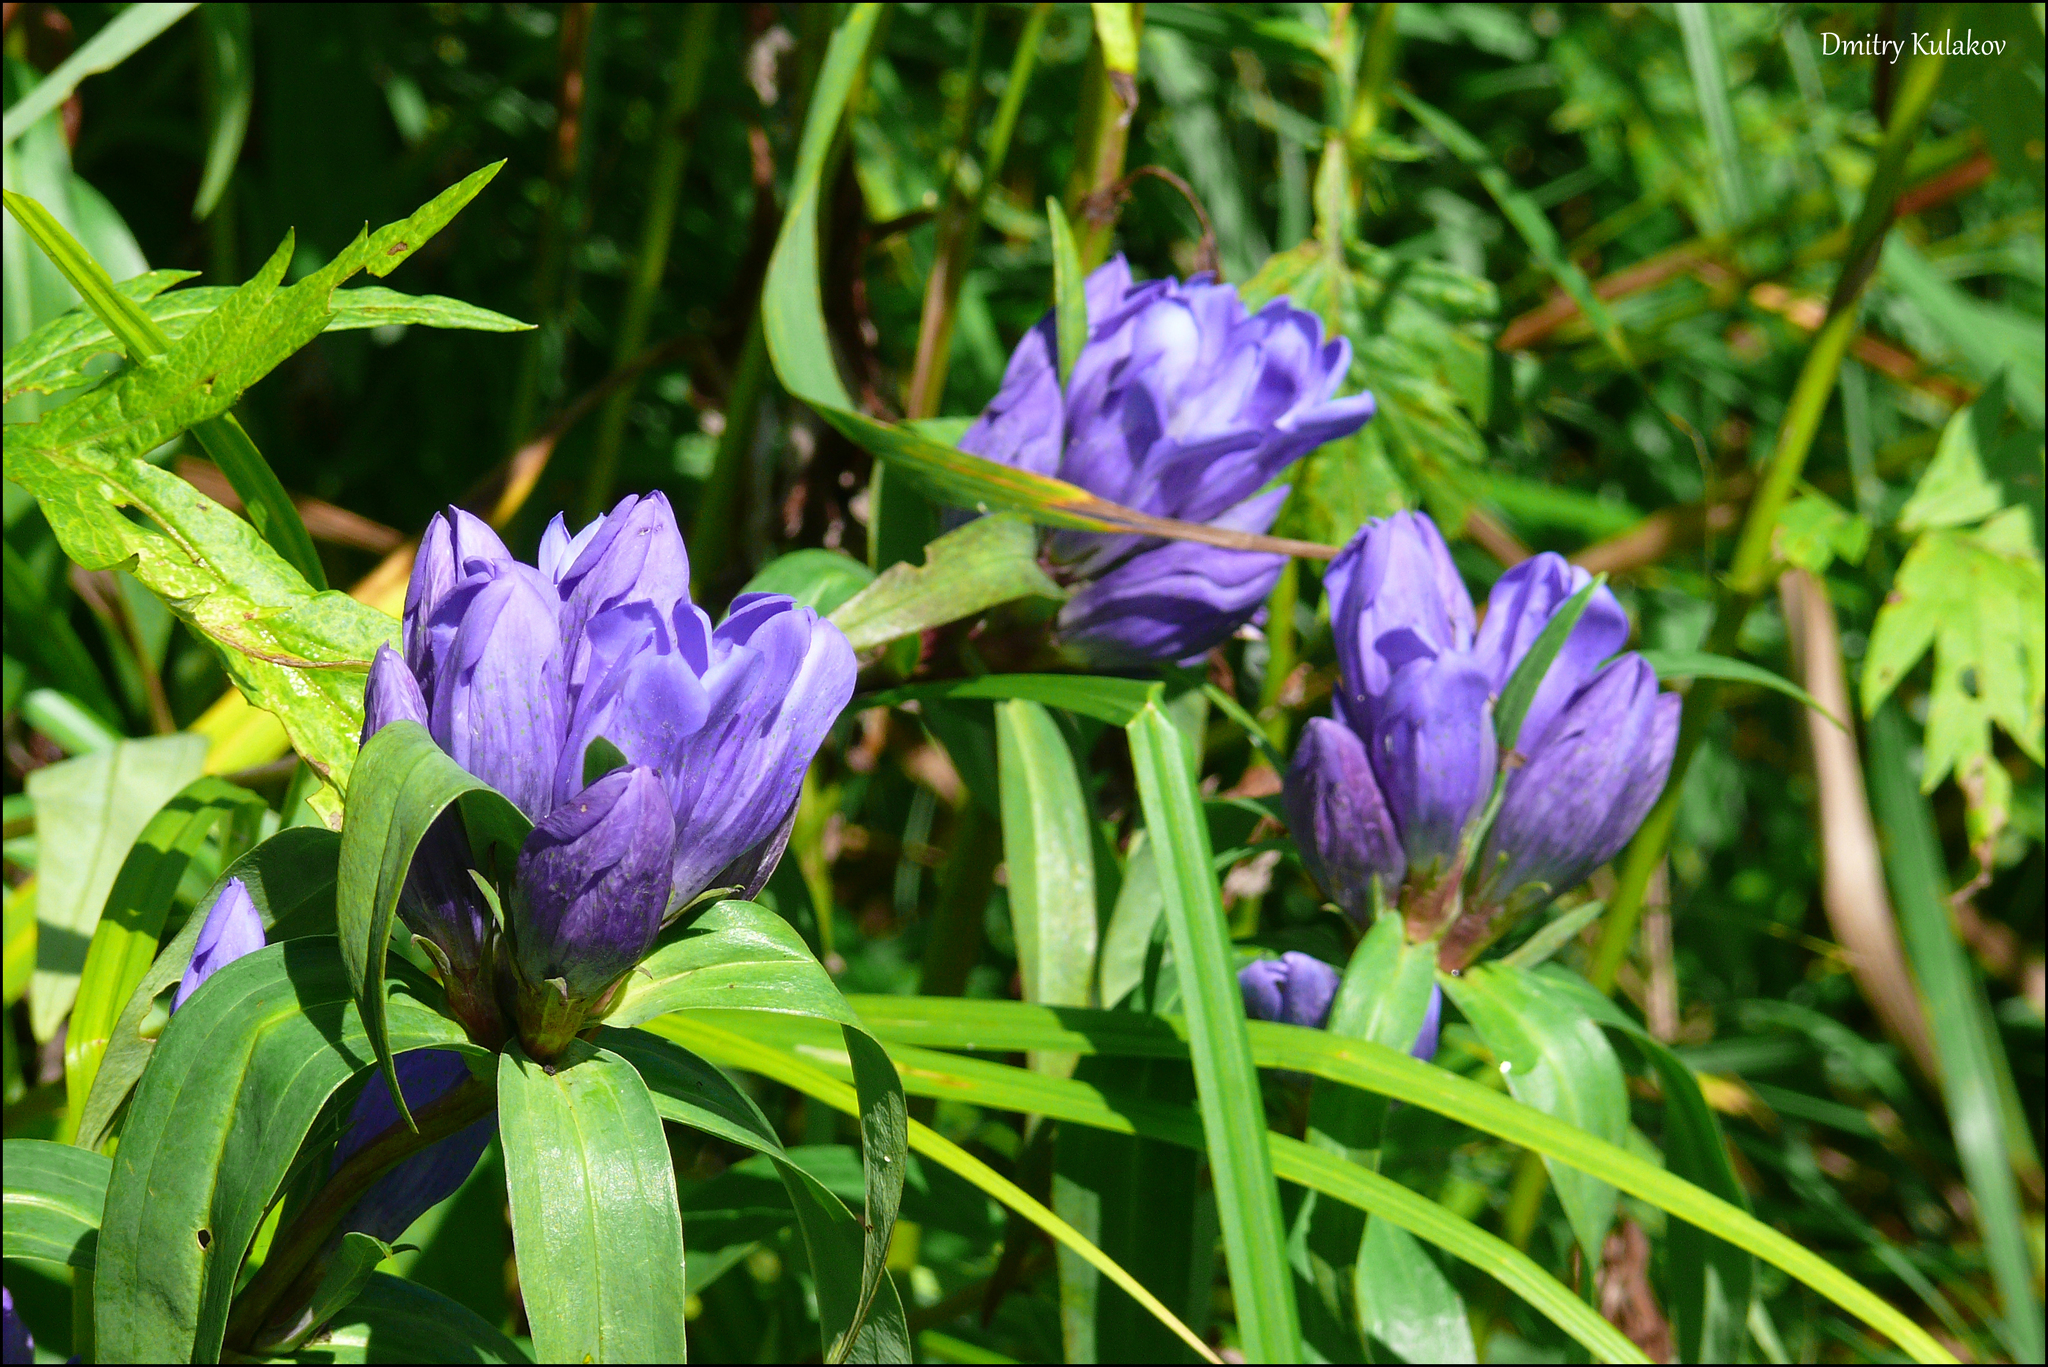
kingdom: Plantae
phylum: Tracheophyta
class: Magnoliopsida
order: Gentianales
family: Gentianaceae
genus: Gentiana
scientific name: Gentiana triflora
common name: Three-flower gentian
